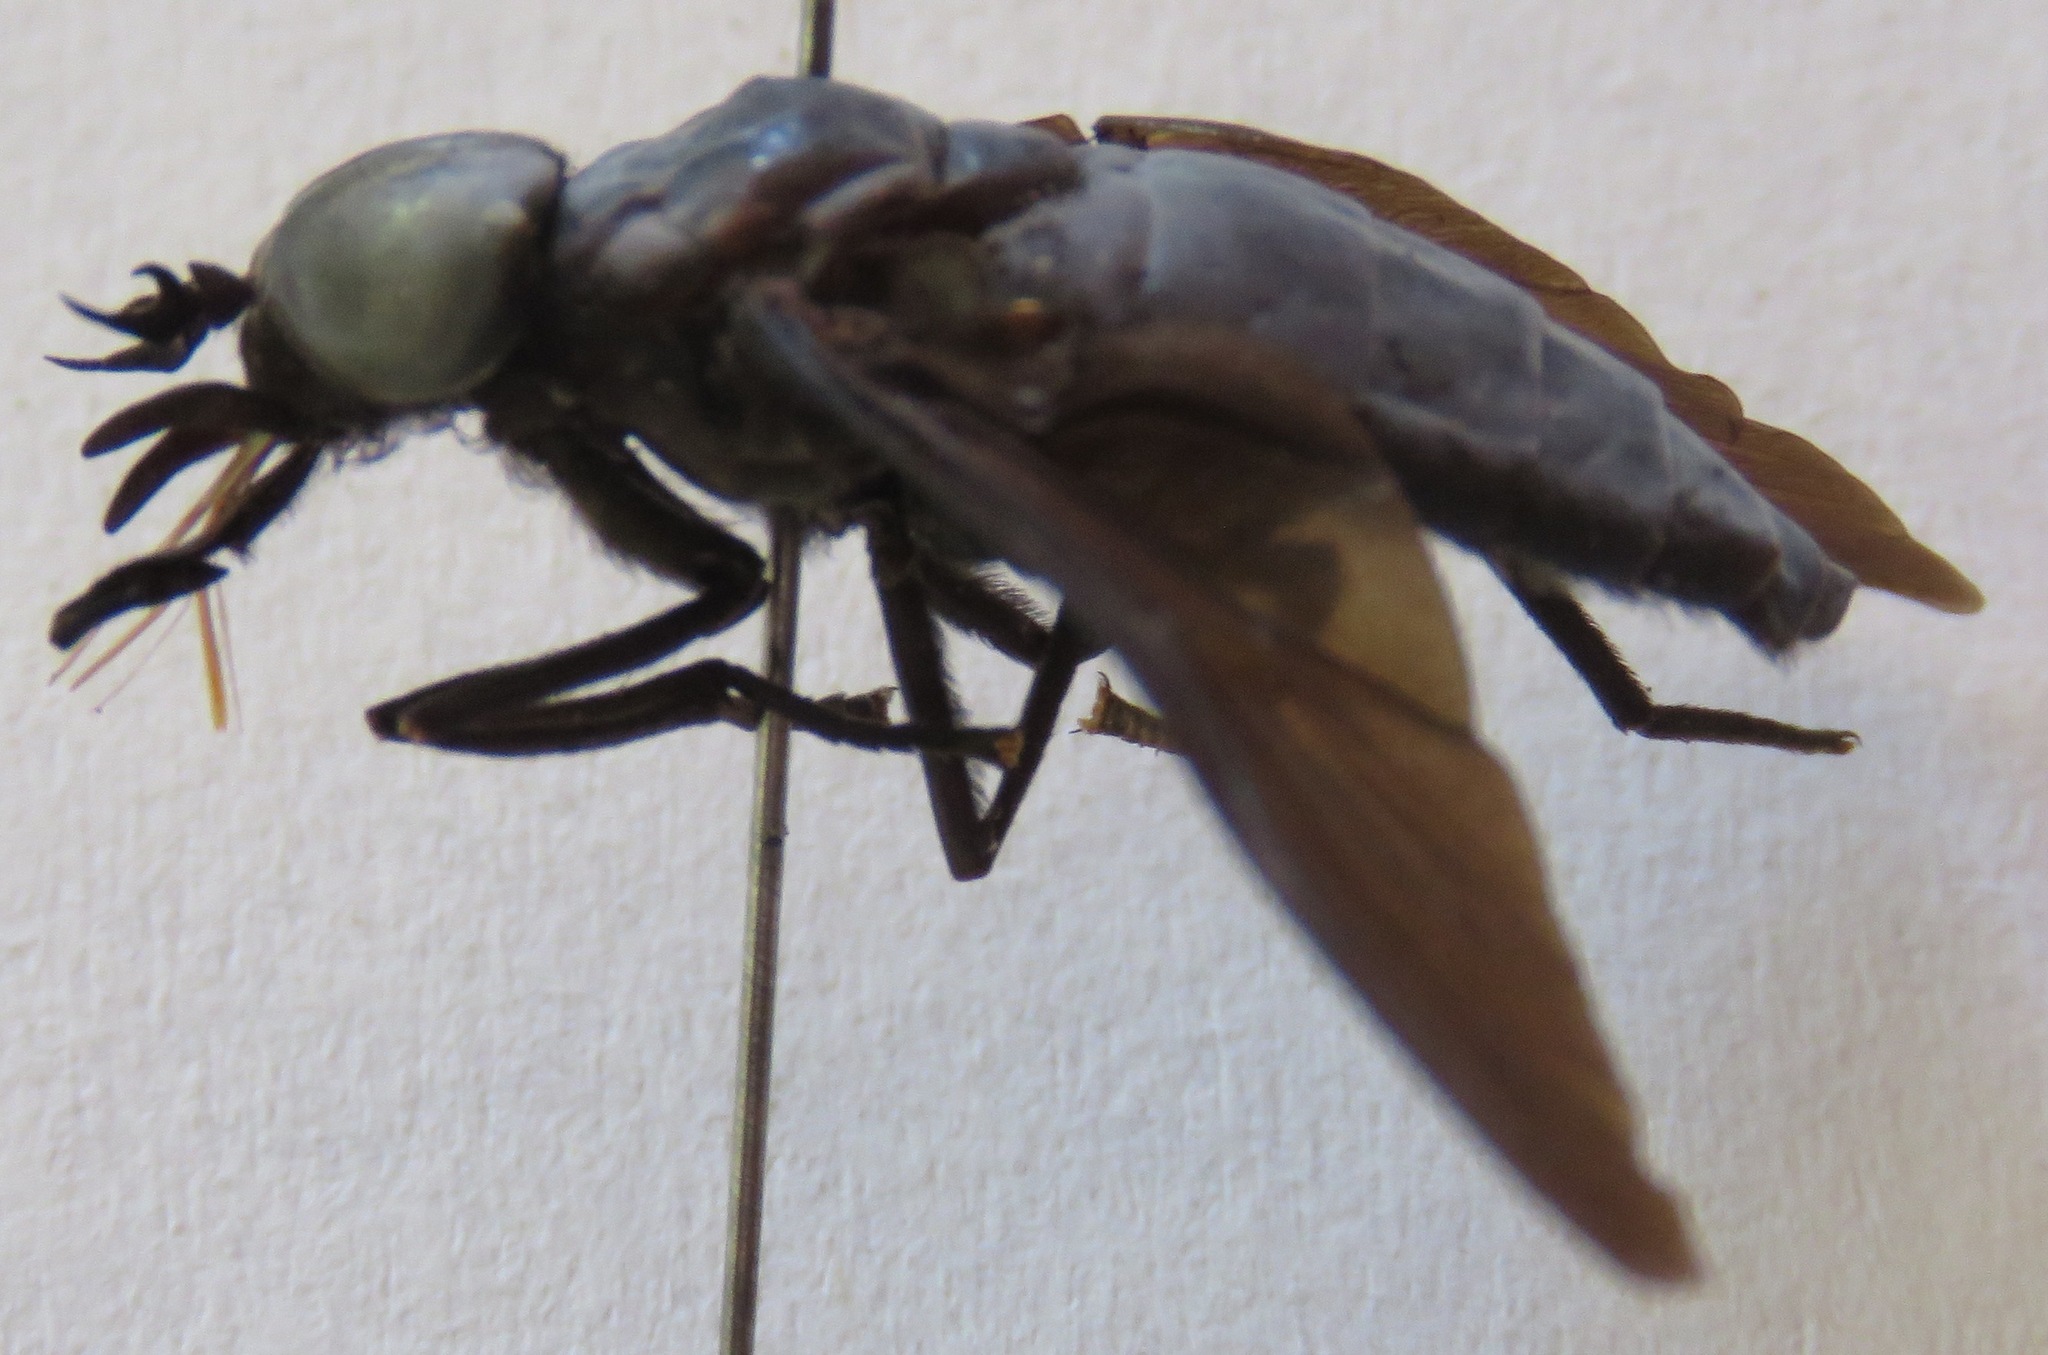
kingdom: Animalia
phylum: Arthropoda
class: Insecta
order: Diptera
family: Tabanidae
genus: Tabanus
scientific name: Tabanus erebus
